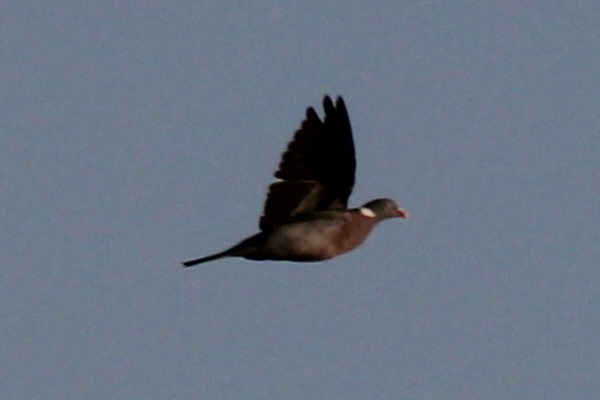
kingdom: Animalia
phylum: Chordata
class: Aves
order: Columbiformes
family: Columbidae
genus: Columba
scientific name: Columba palumbus
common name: Common wood pigeon
